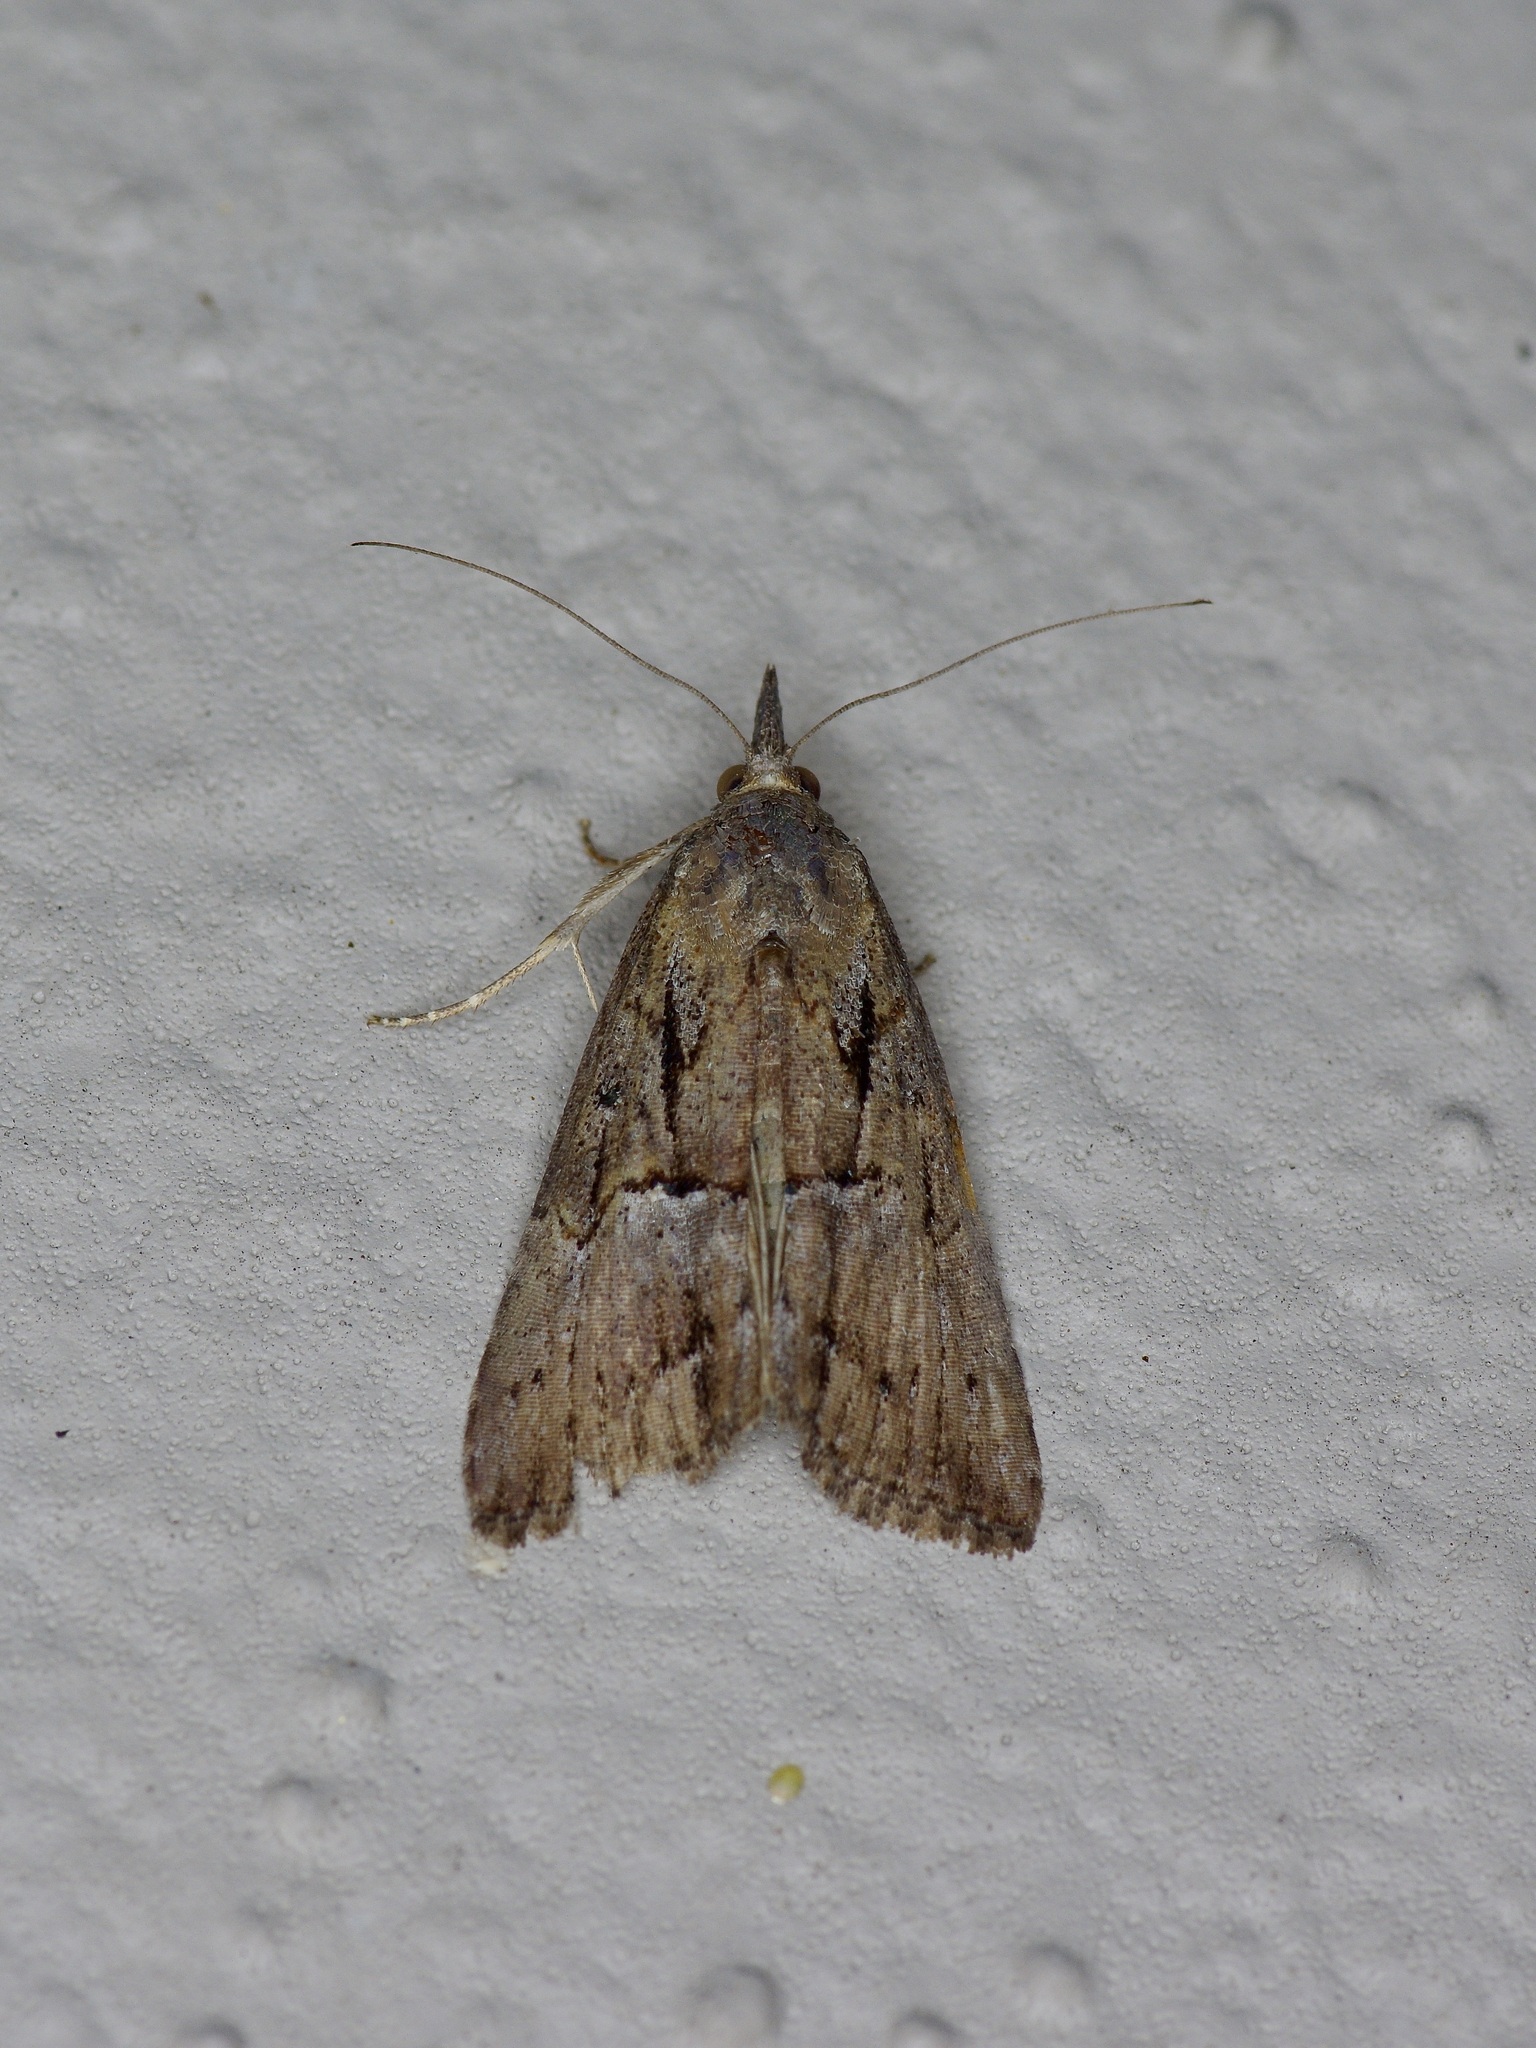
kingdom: Animalia
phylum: Arthropoda
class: Insecta
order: Lepidoptera
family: Erebidae
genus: Hypena
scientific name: Hypena scabra
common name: Green cloverworm
